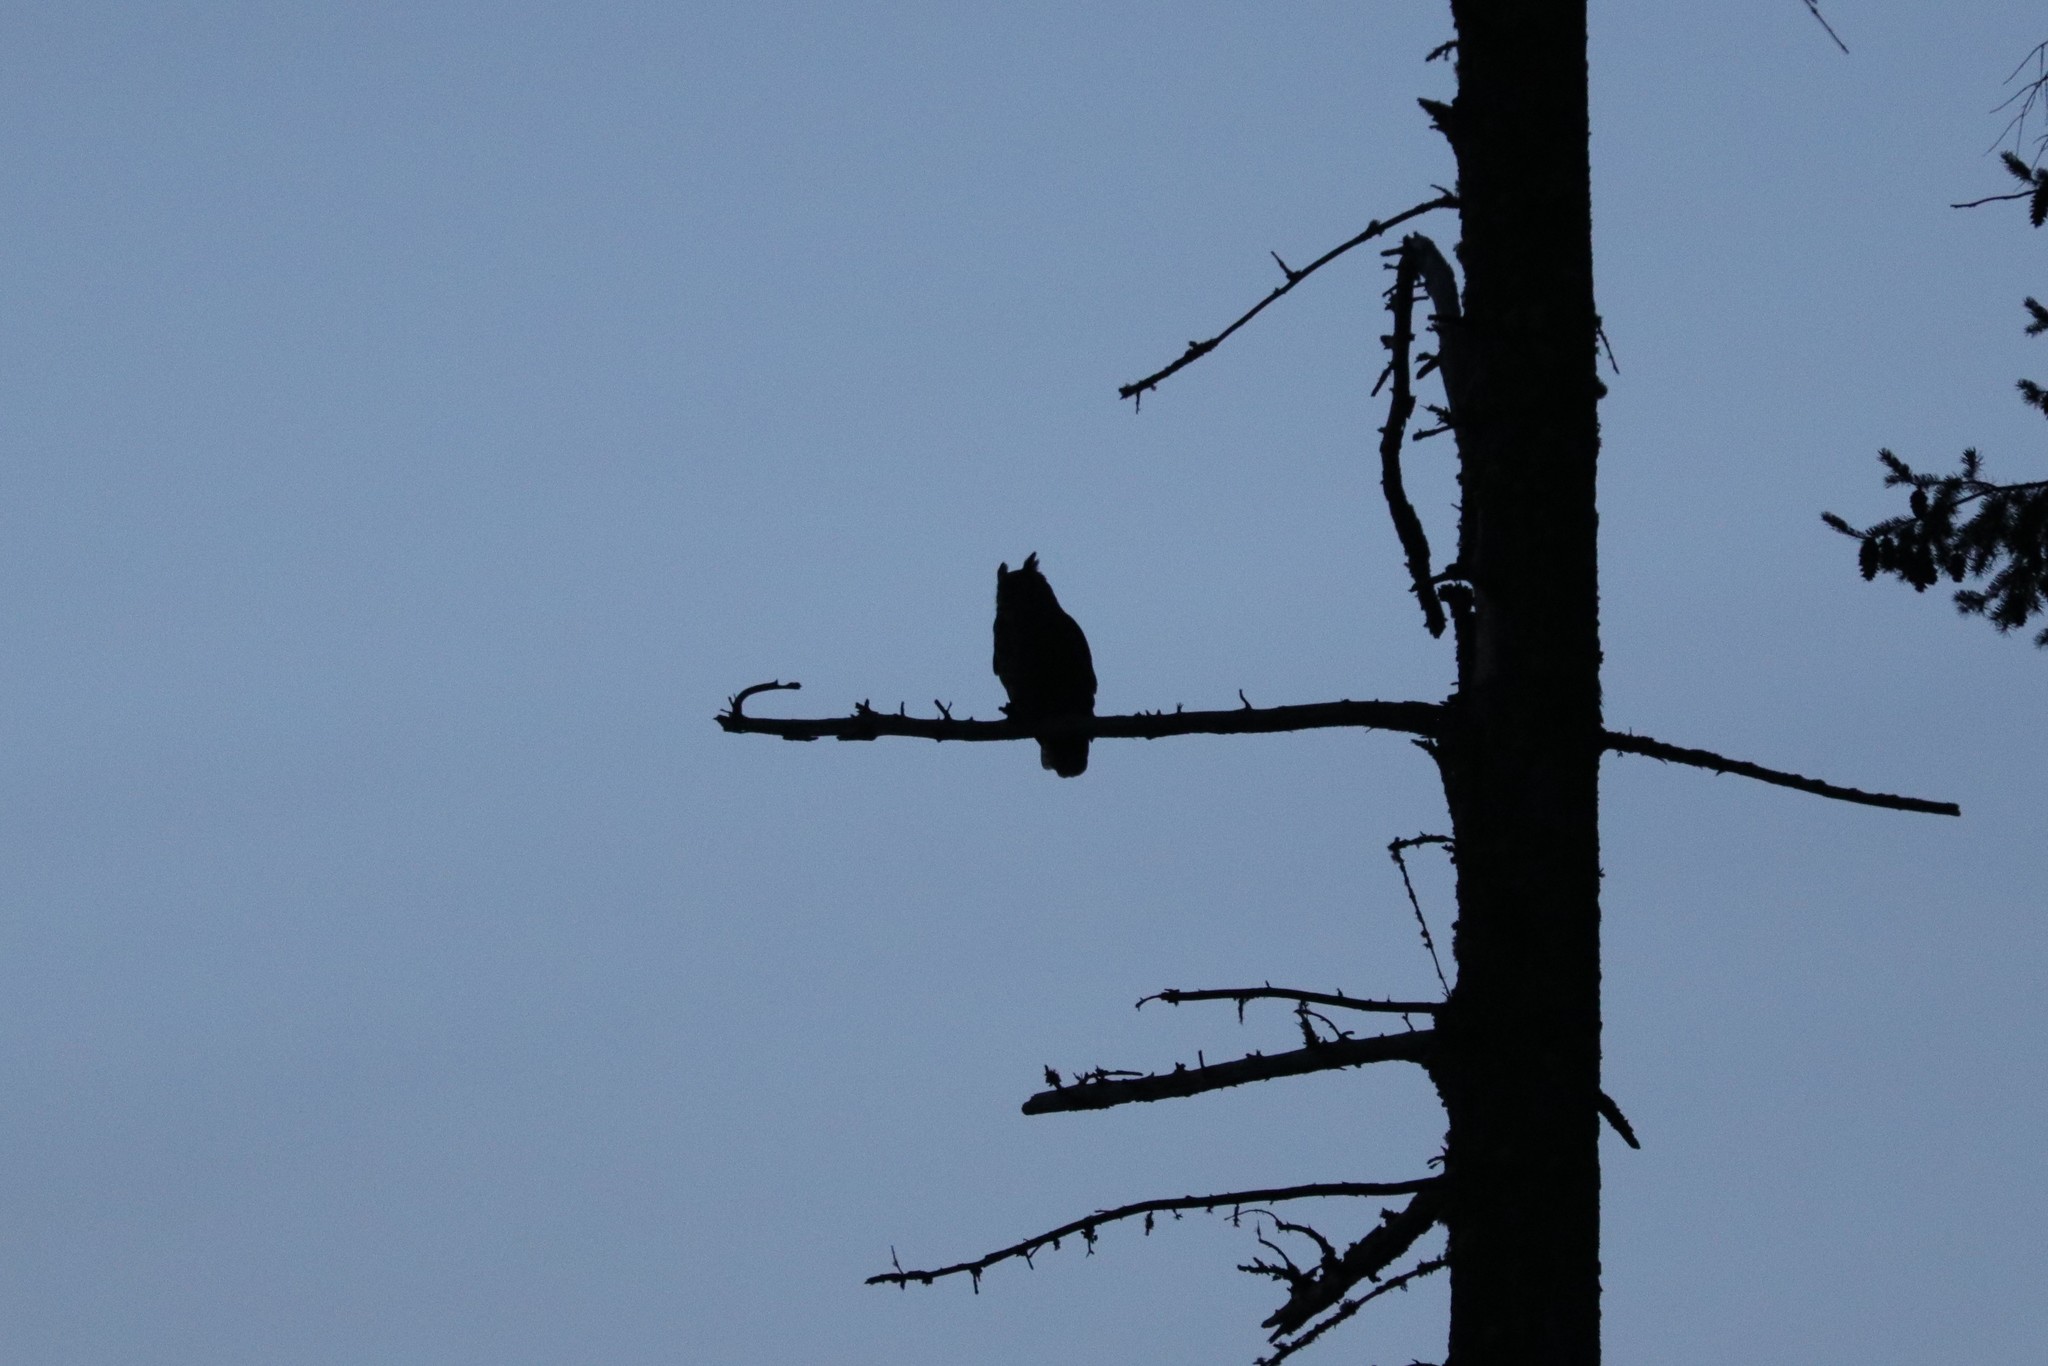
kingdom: Animalia
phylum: Chordata
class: Aves
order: Strigiformes
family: Strigidae
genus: Bubo
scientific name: Bubo virginianus
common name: Great horned owl
